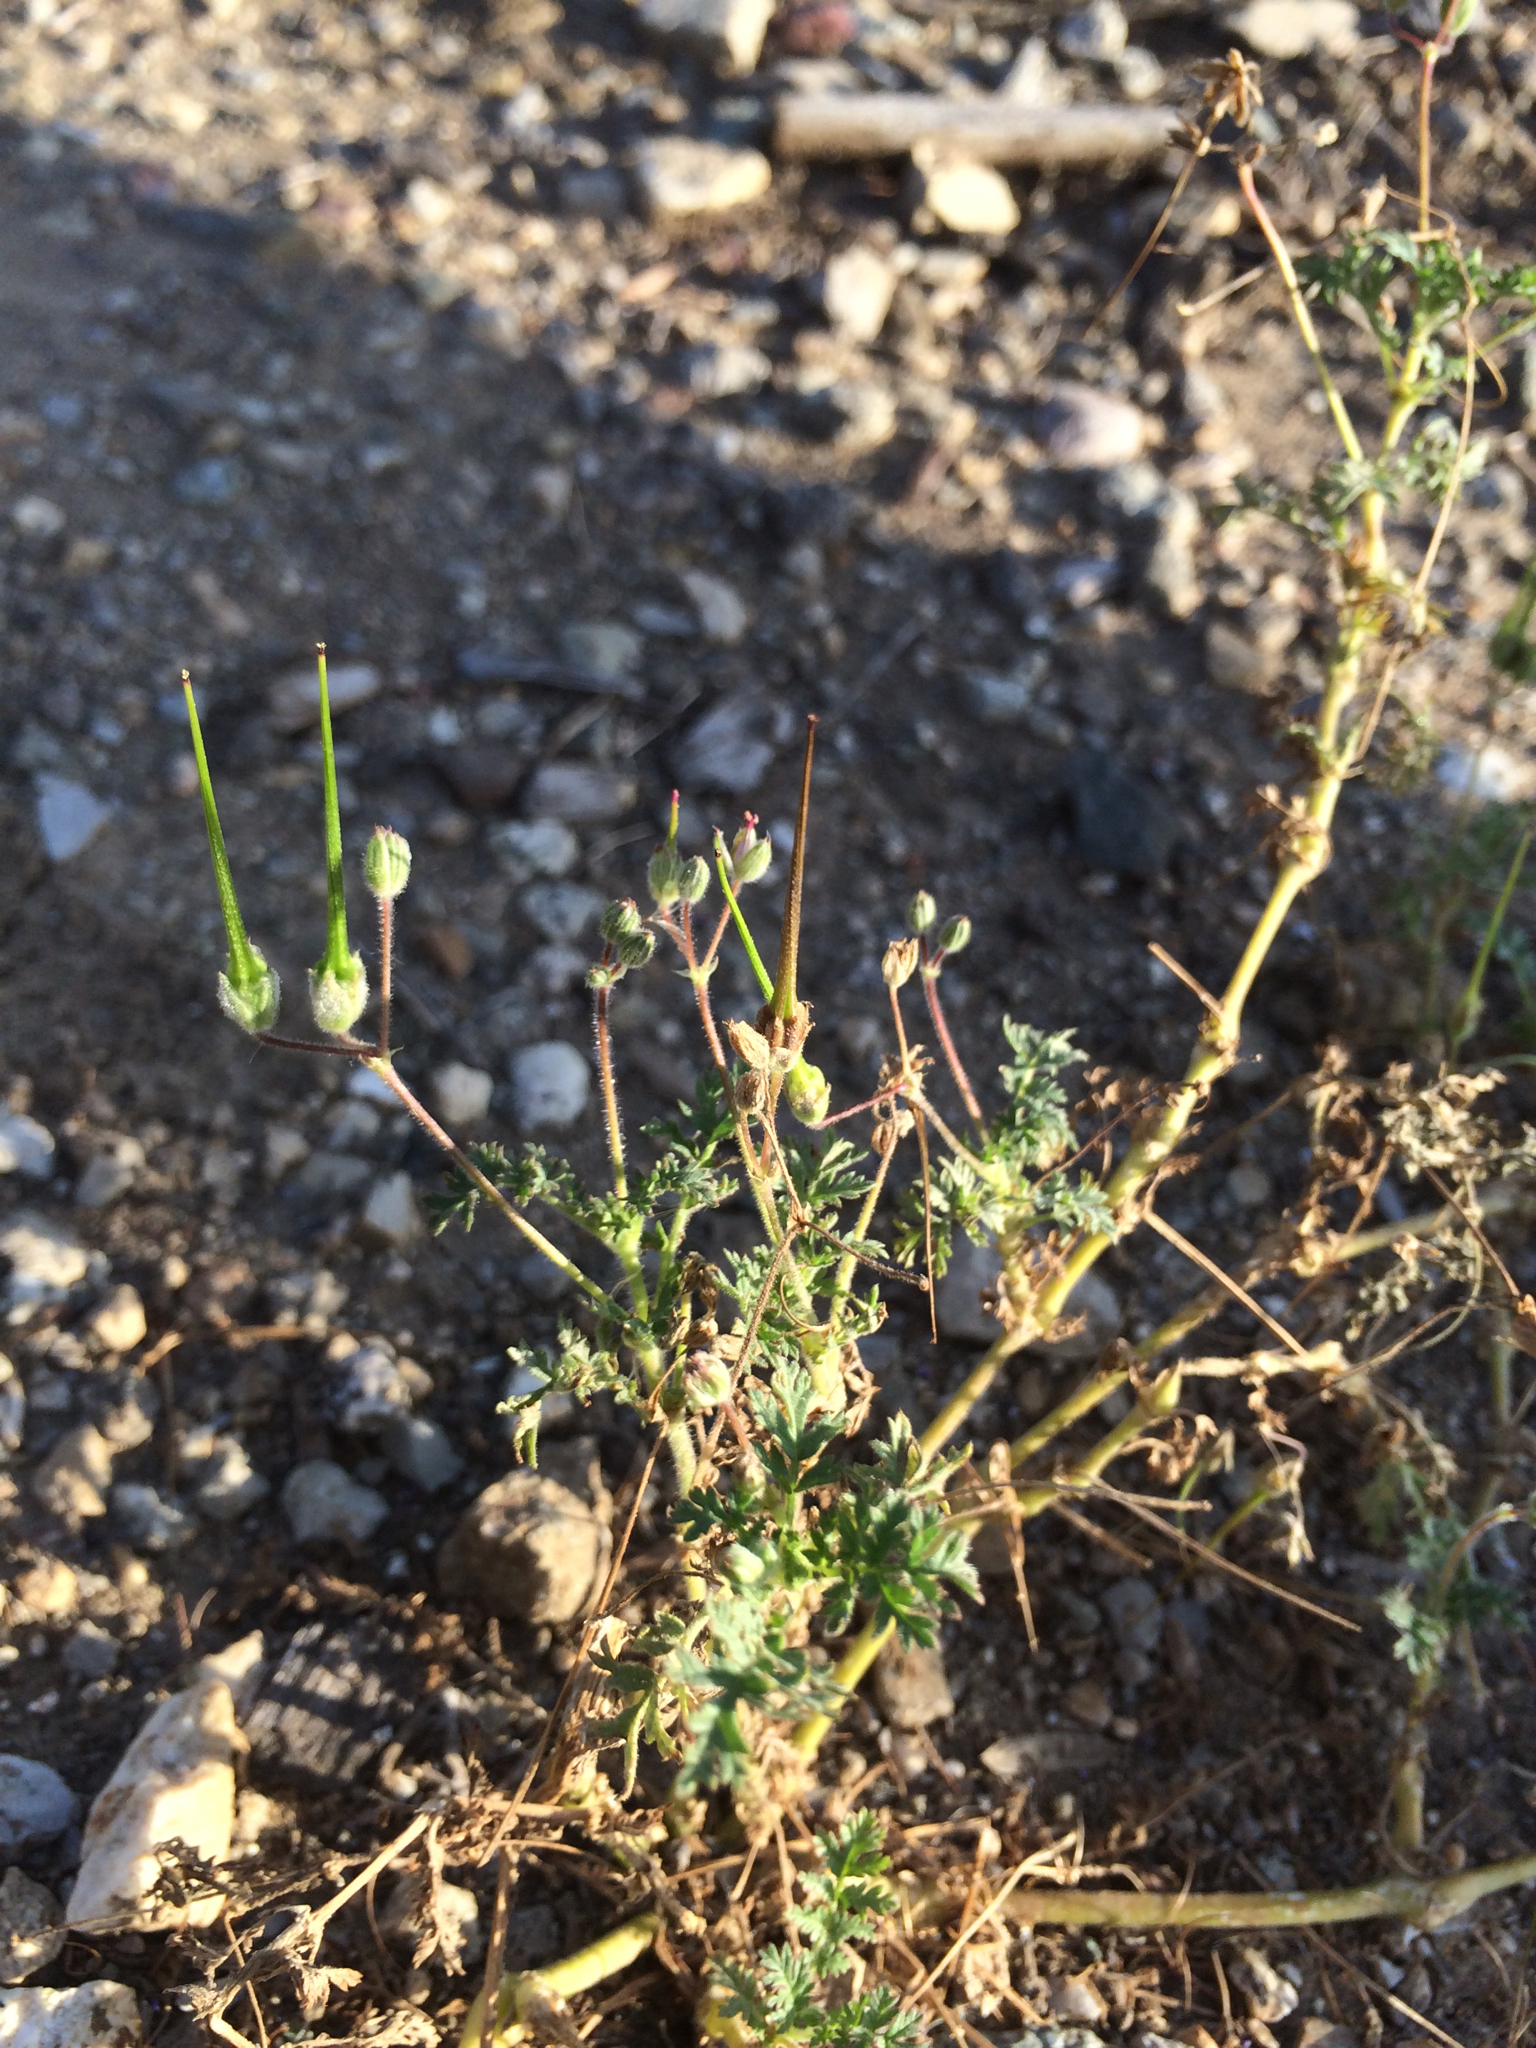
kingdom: Plantae
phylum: Tracheophyta
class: Magnoliopsida
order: Geraniales
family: Geraniaceae
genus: Erodium
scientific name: Erodium cicutarium
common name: Common stork's-bill
